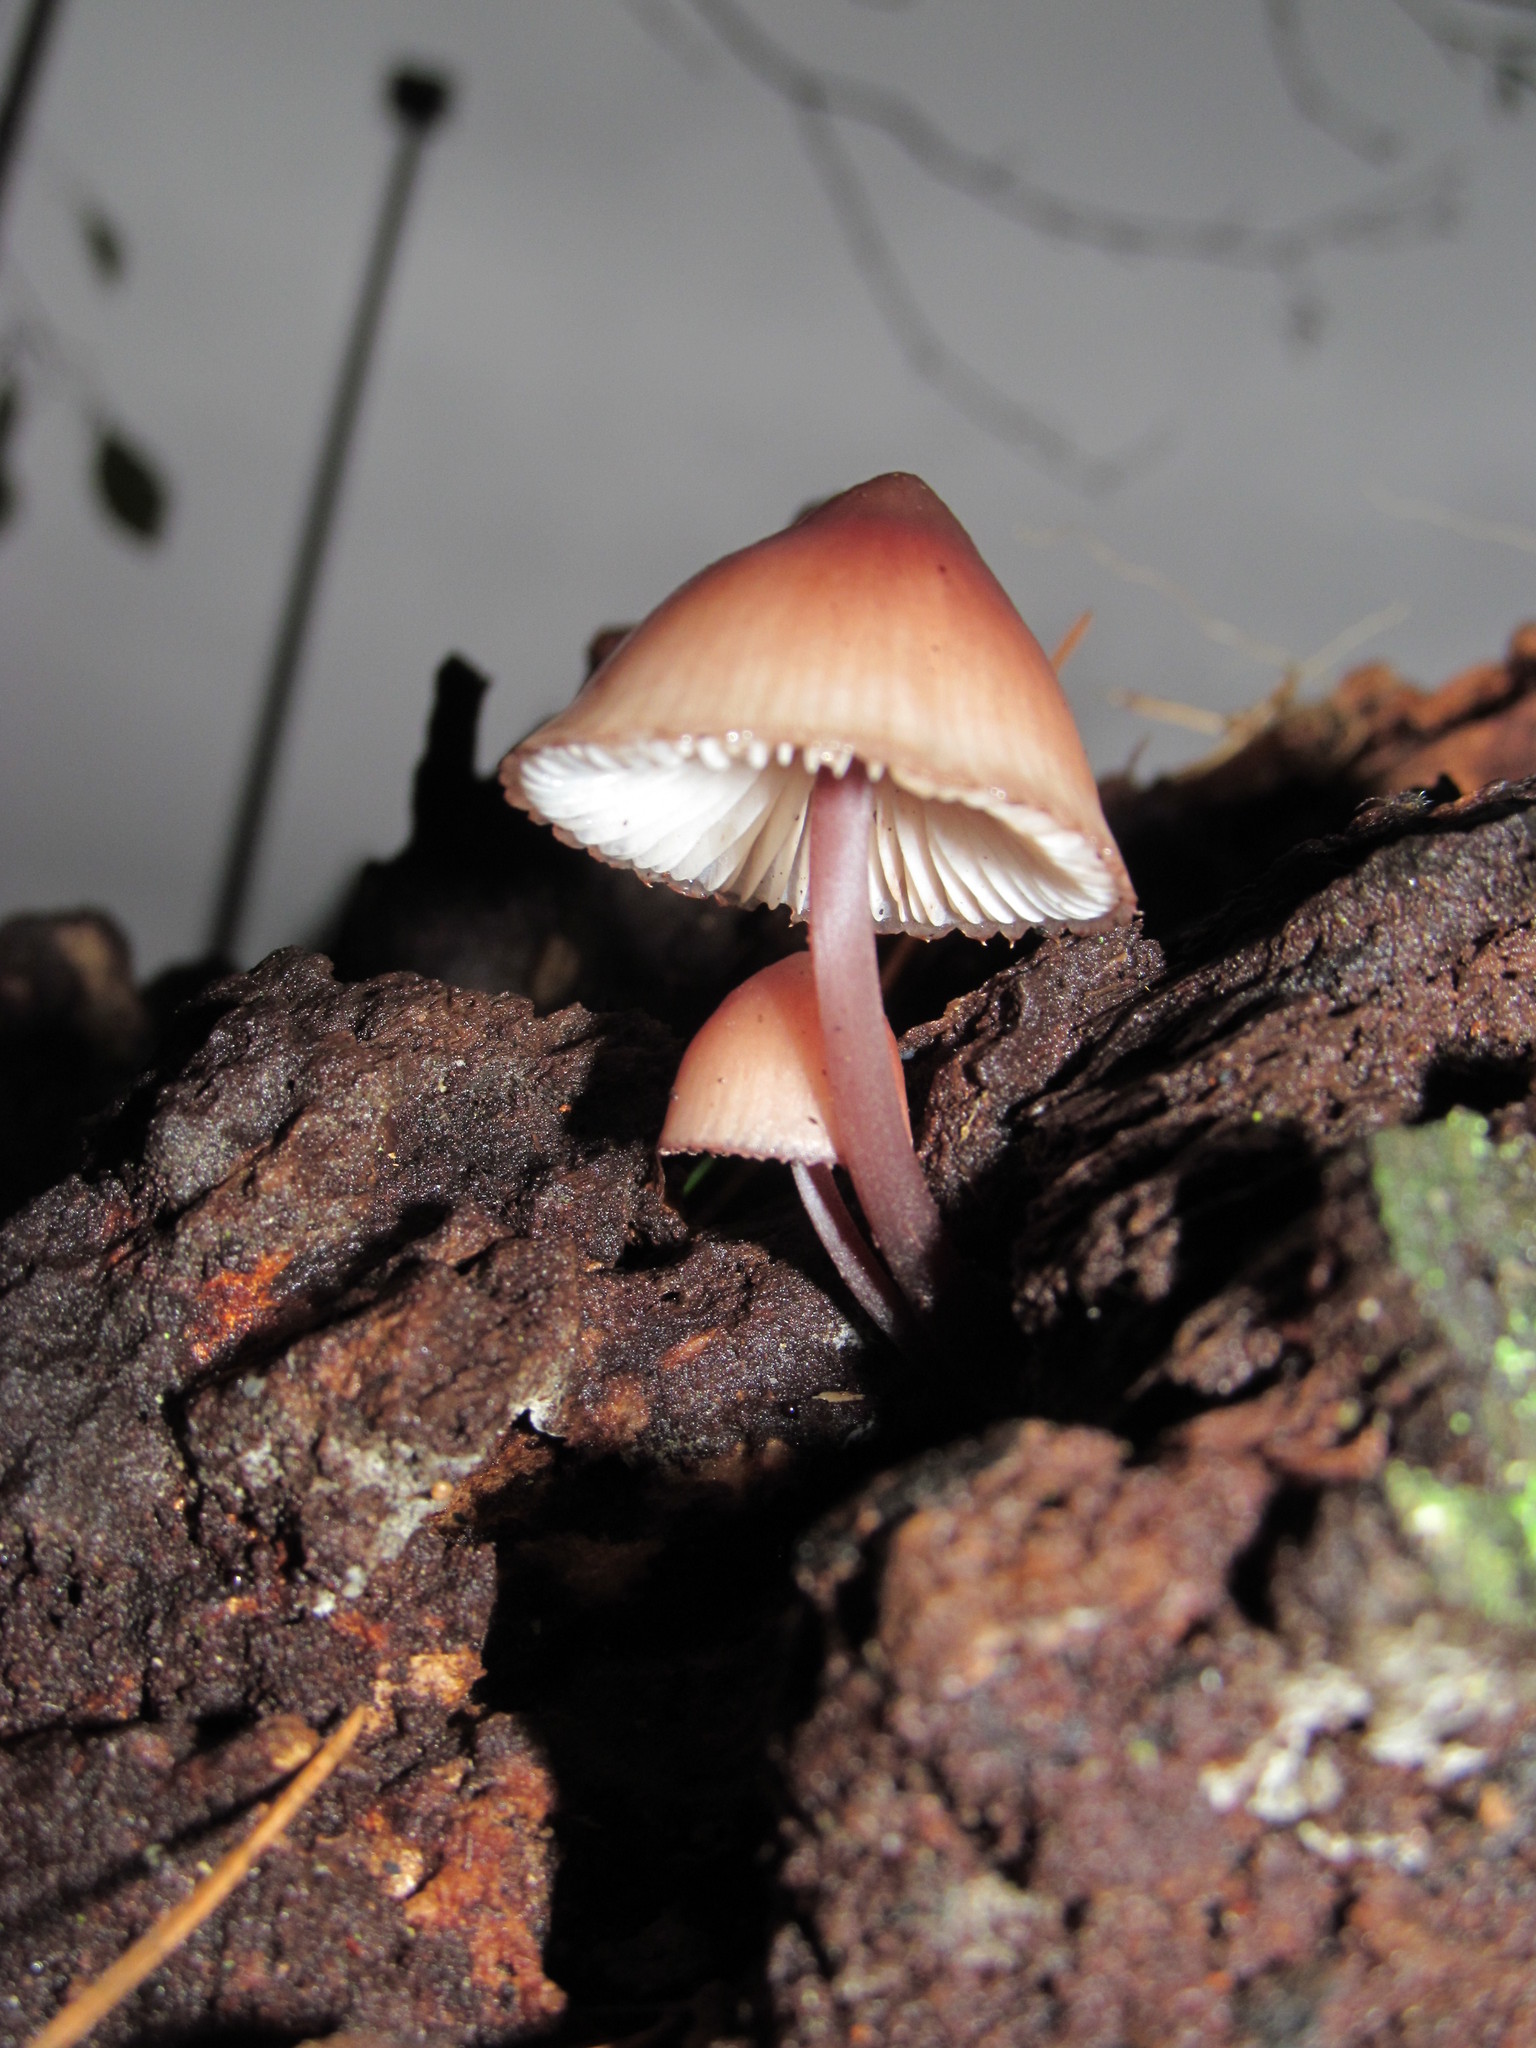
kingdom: Fungi
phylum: Basidiomycota
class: Agaricomycetes
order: Agaricales
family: Mycenaceae
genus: Mycena
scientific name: Mycena haematopus
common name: Burgundydrop bonnet
